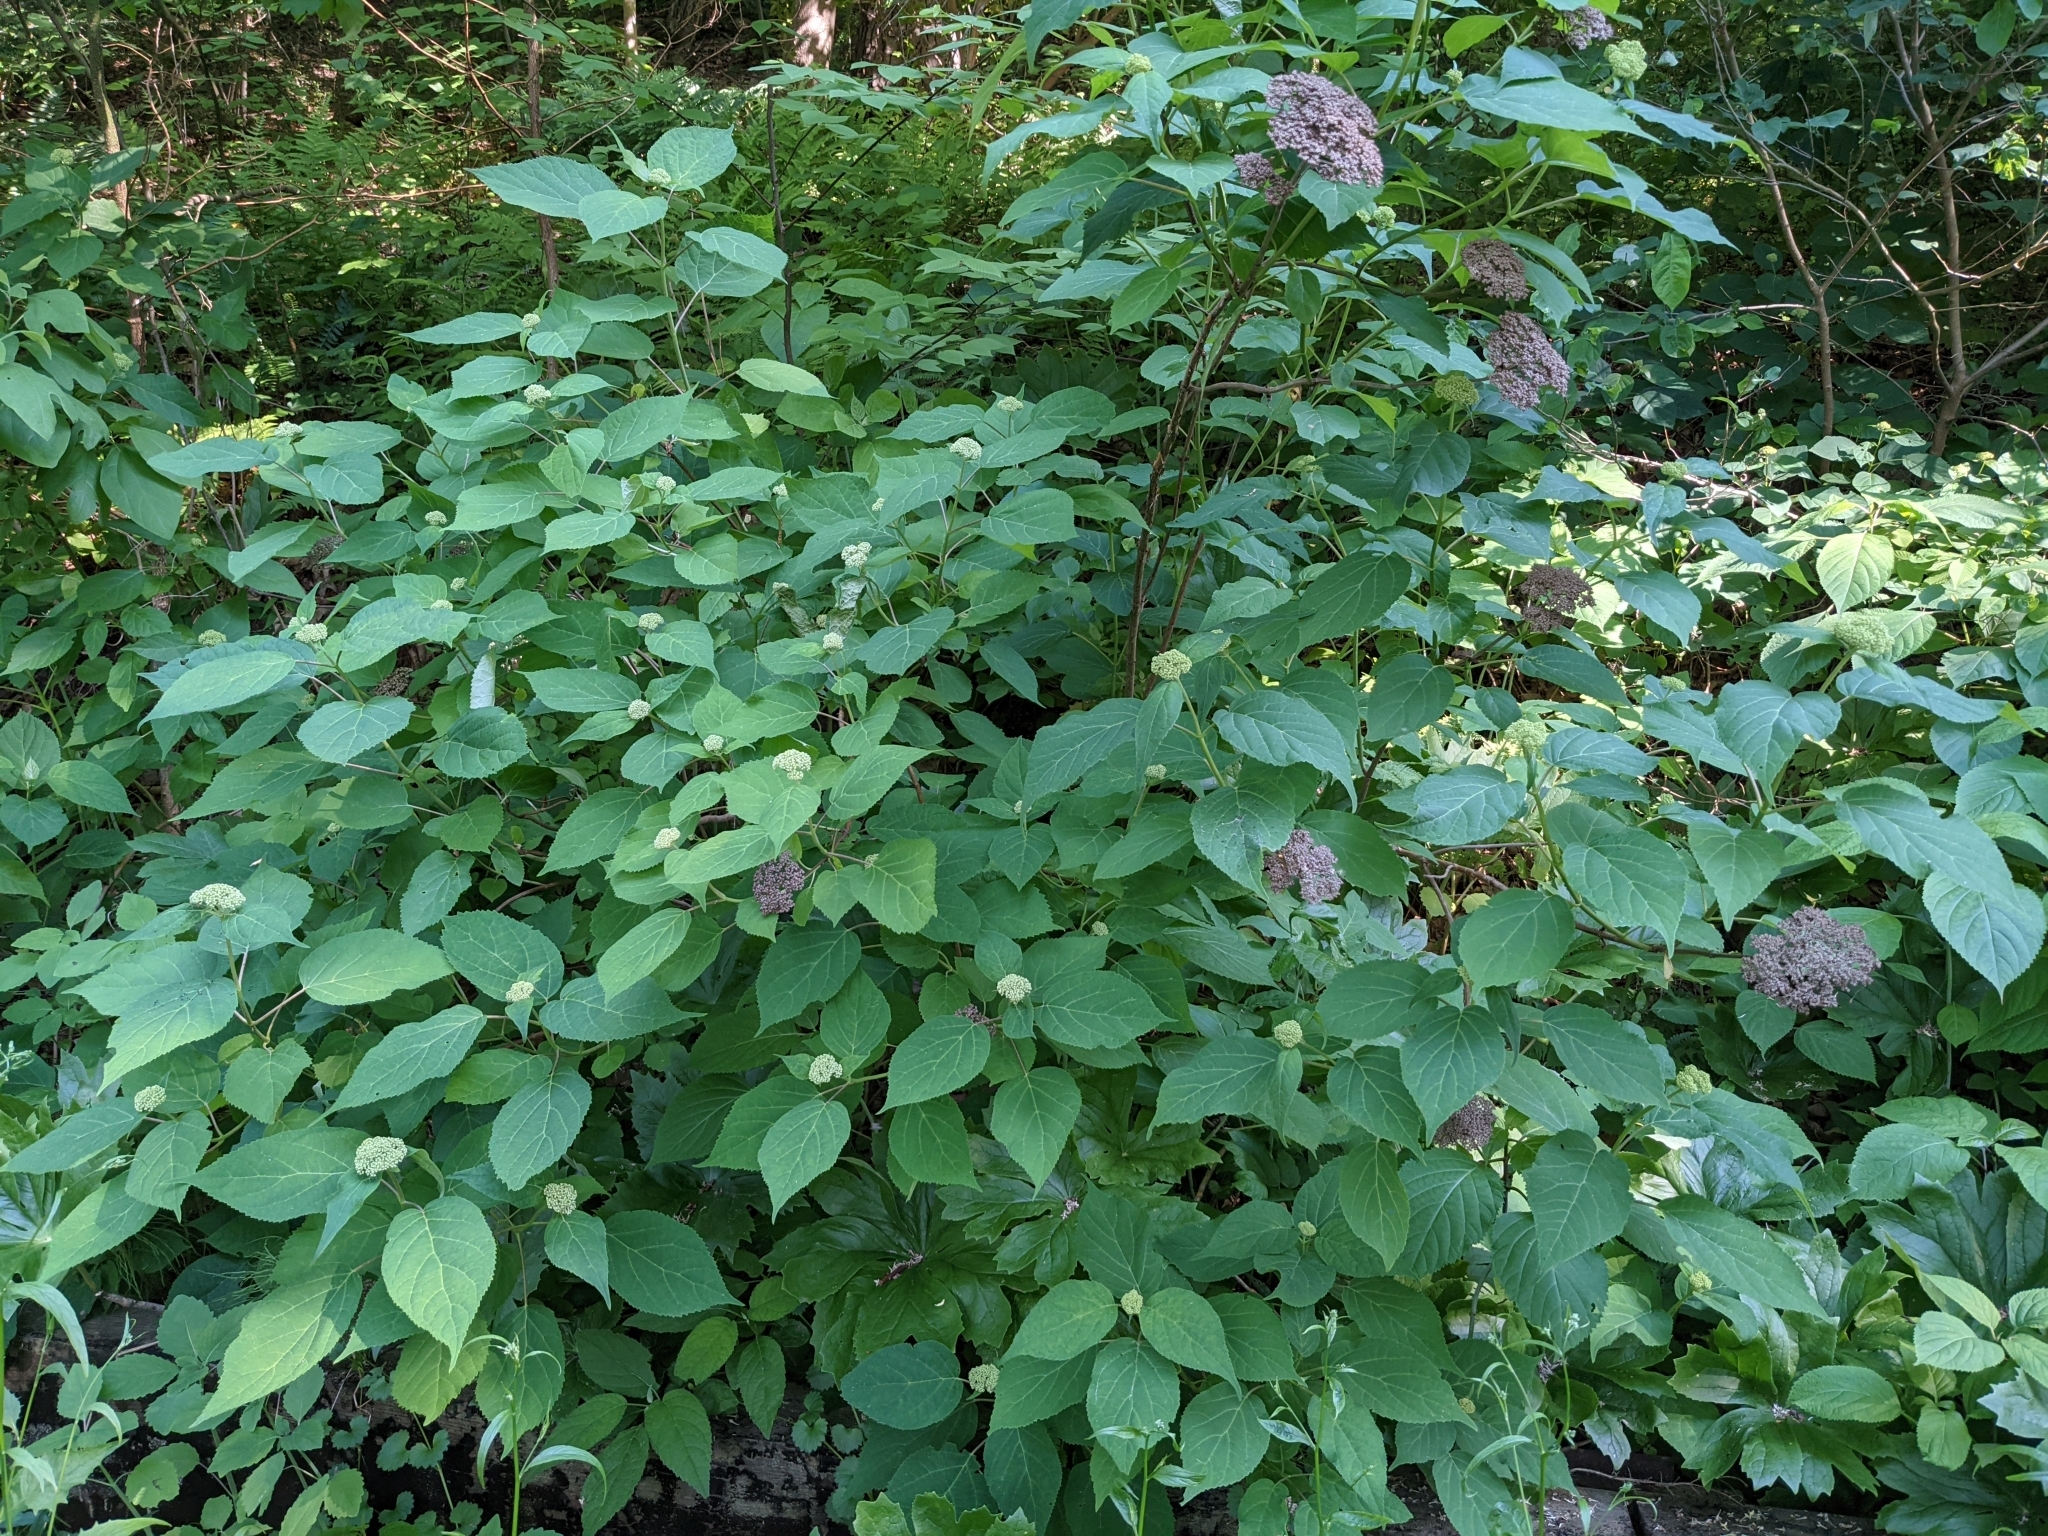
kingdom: Plantae
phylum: Tracheophyta
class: Magnoliopsida
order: Cornales
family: Hydrangeaceae
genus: Hydrangea
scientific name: Hydrangea arborescens
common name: Sevenbark
